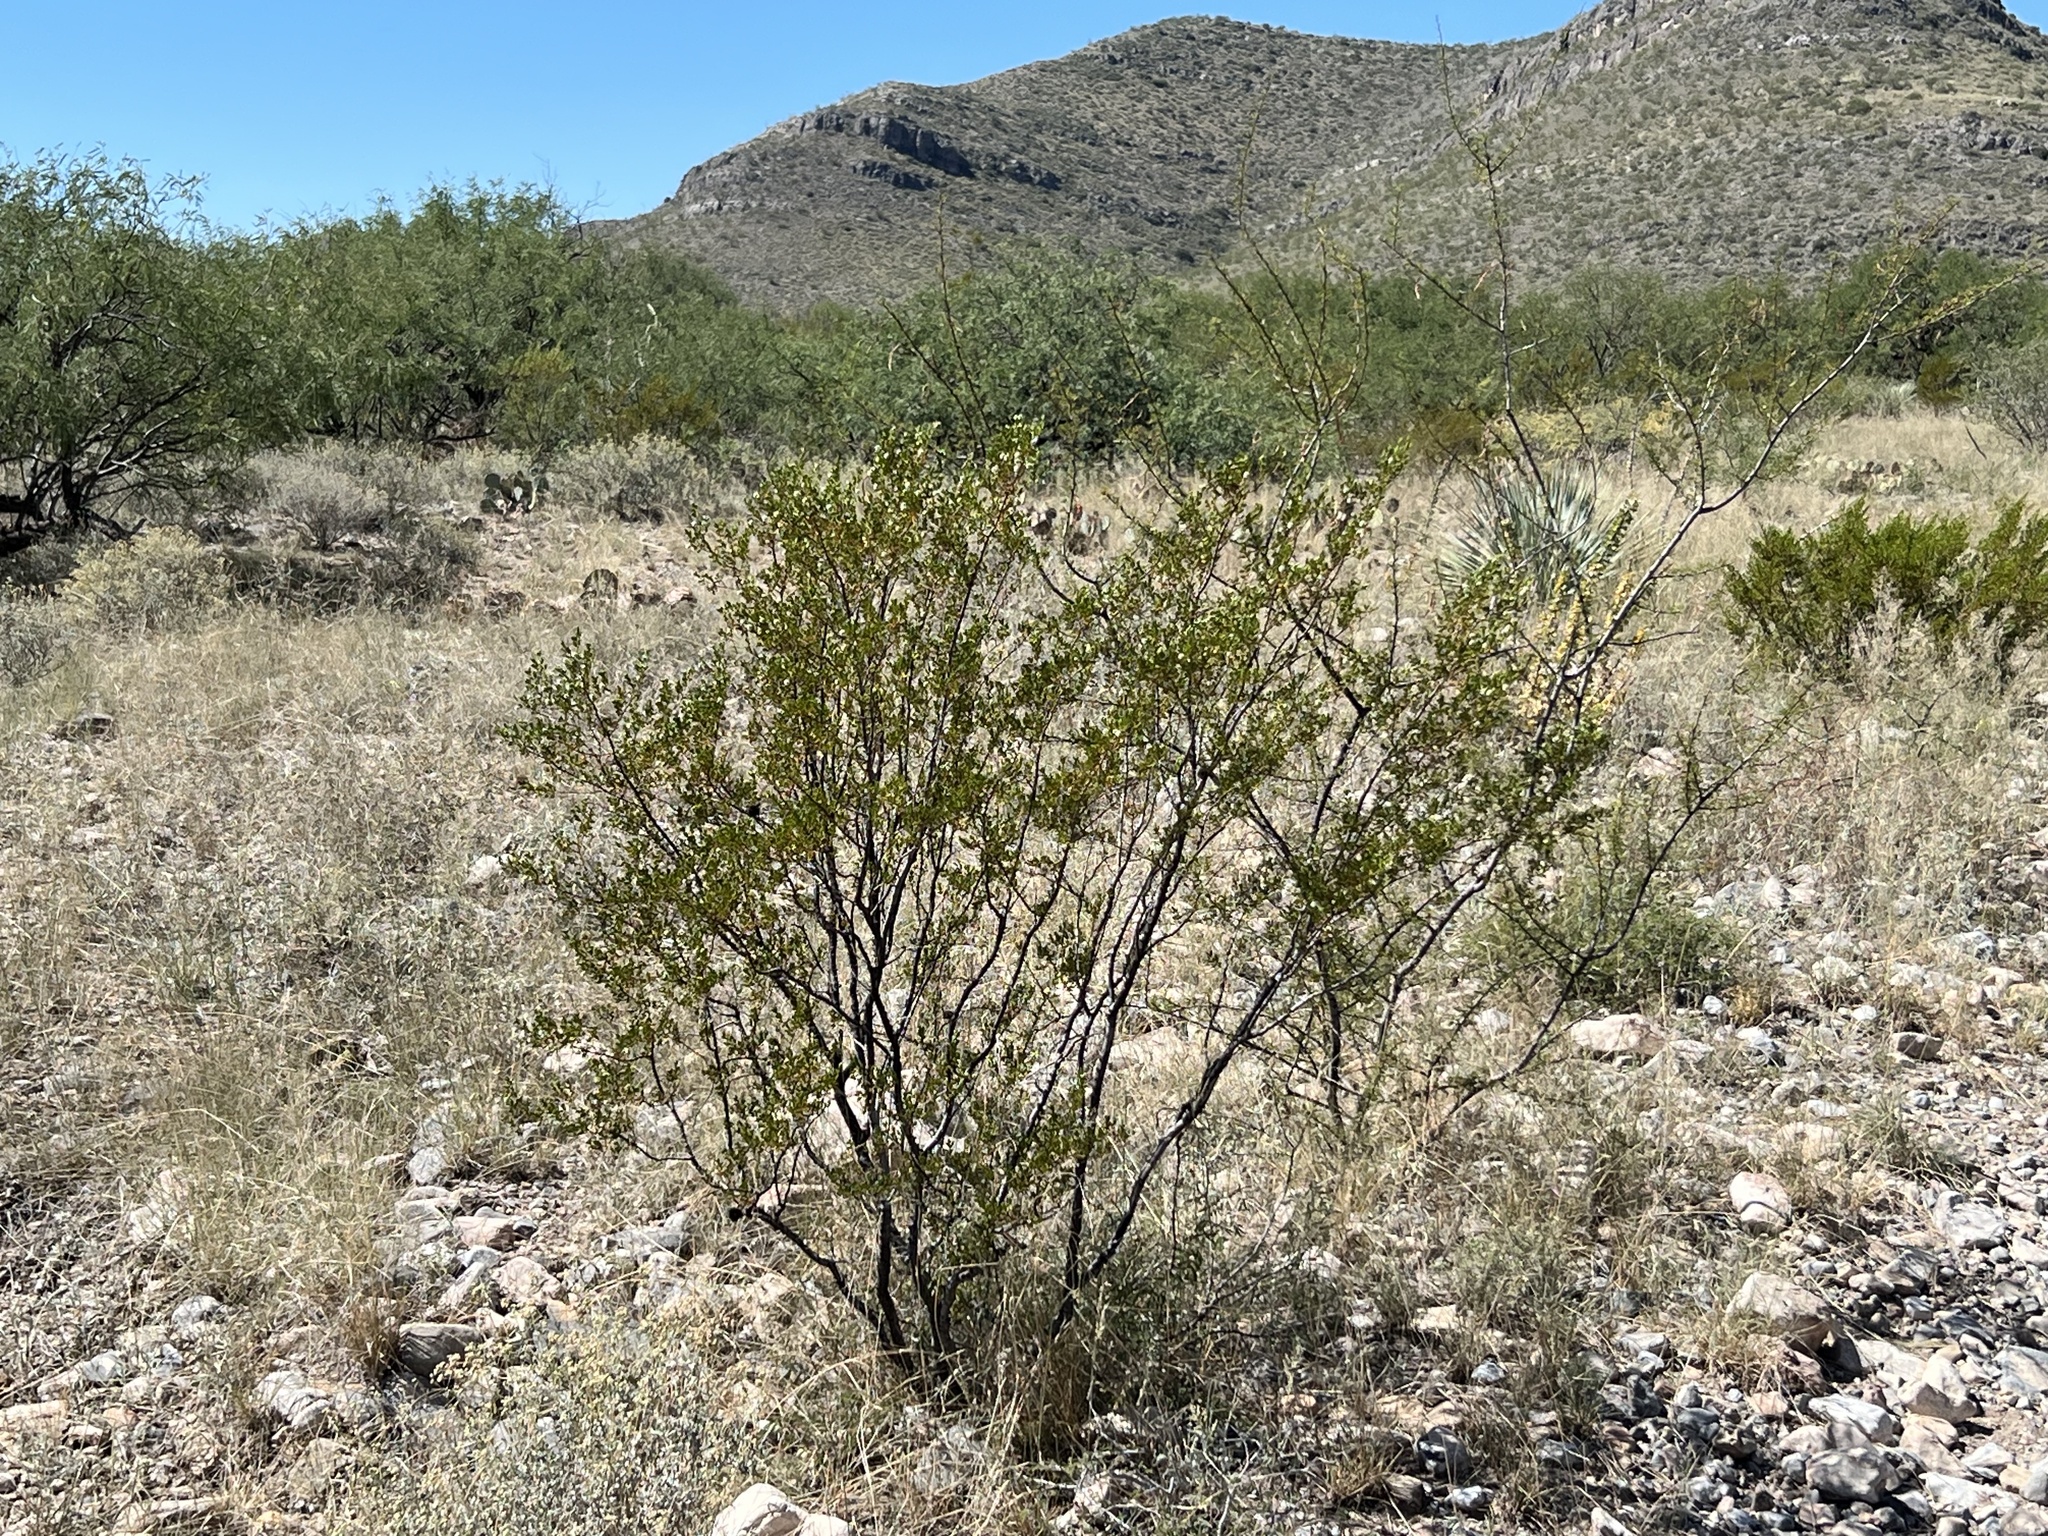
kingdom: Plantae
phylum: Tracheophyta
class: Magnoliopsida
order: Zygophyllales
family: Zygophyllaceae
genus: Larrea
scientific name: Larrea tridentata
